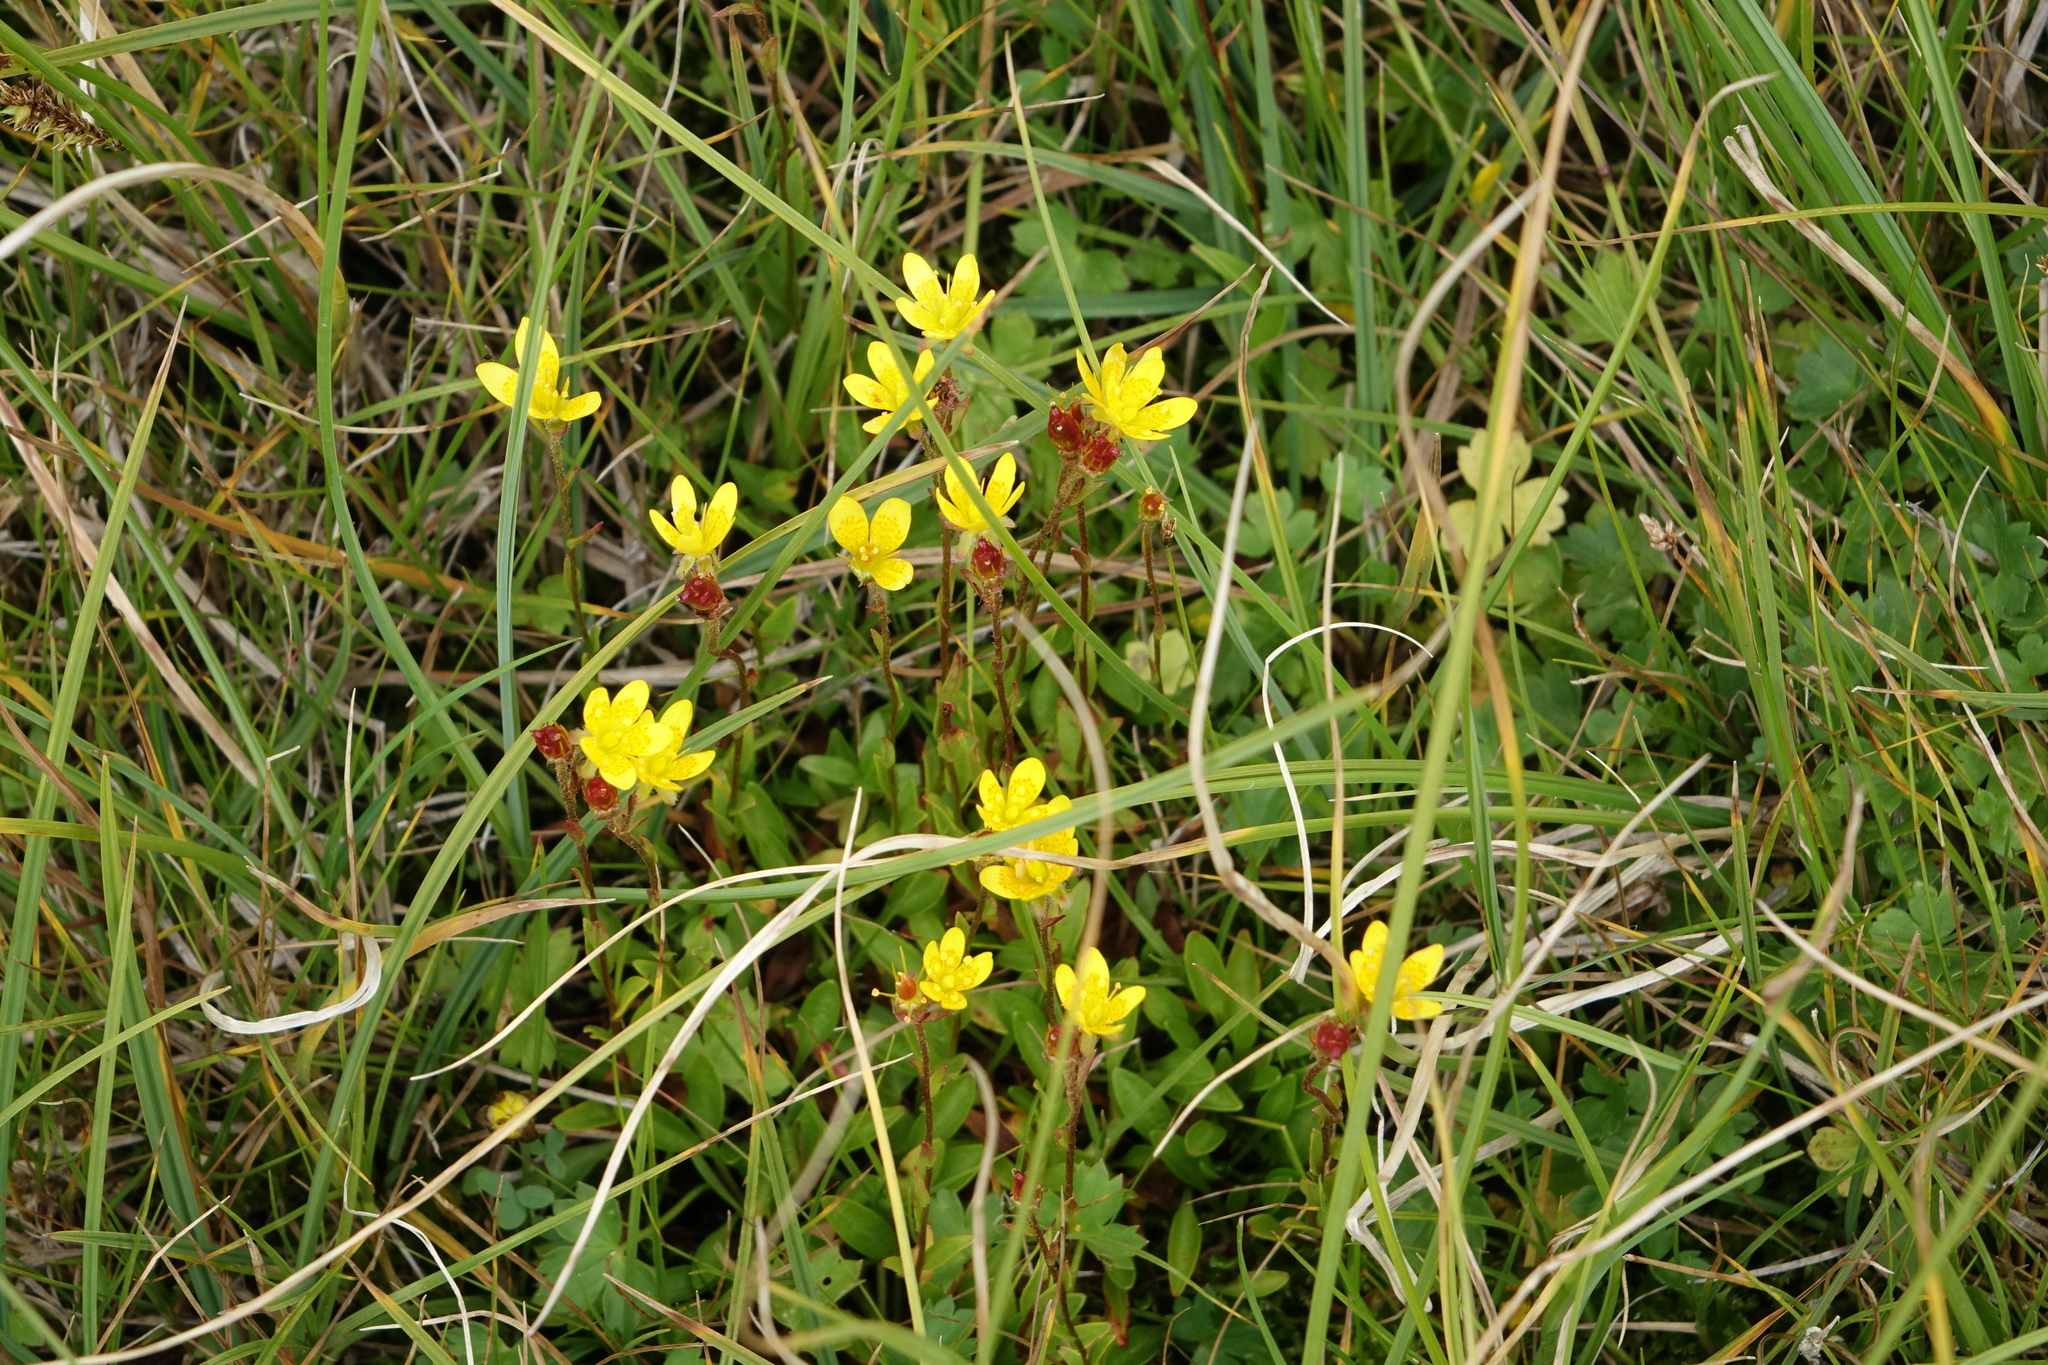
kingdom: Plantae
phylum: Tracheophyta
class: Magnoliopsida
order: Saxifragales
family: Saxifragaceae
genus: Saxifraga
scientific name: Saxifraga hirculus
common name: Yellow marsh saxifrage
